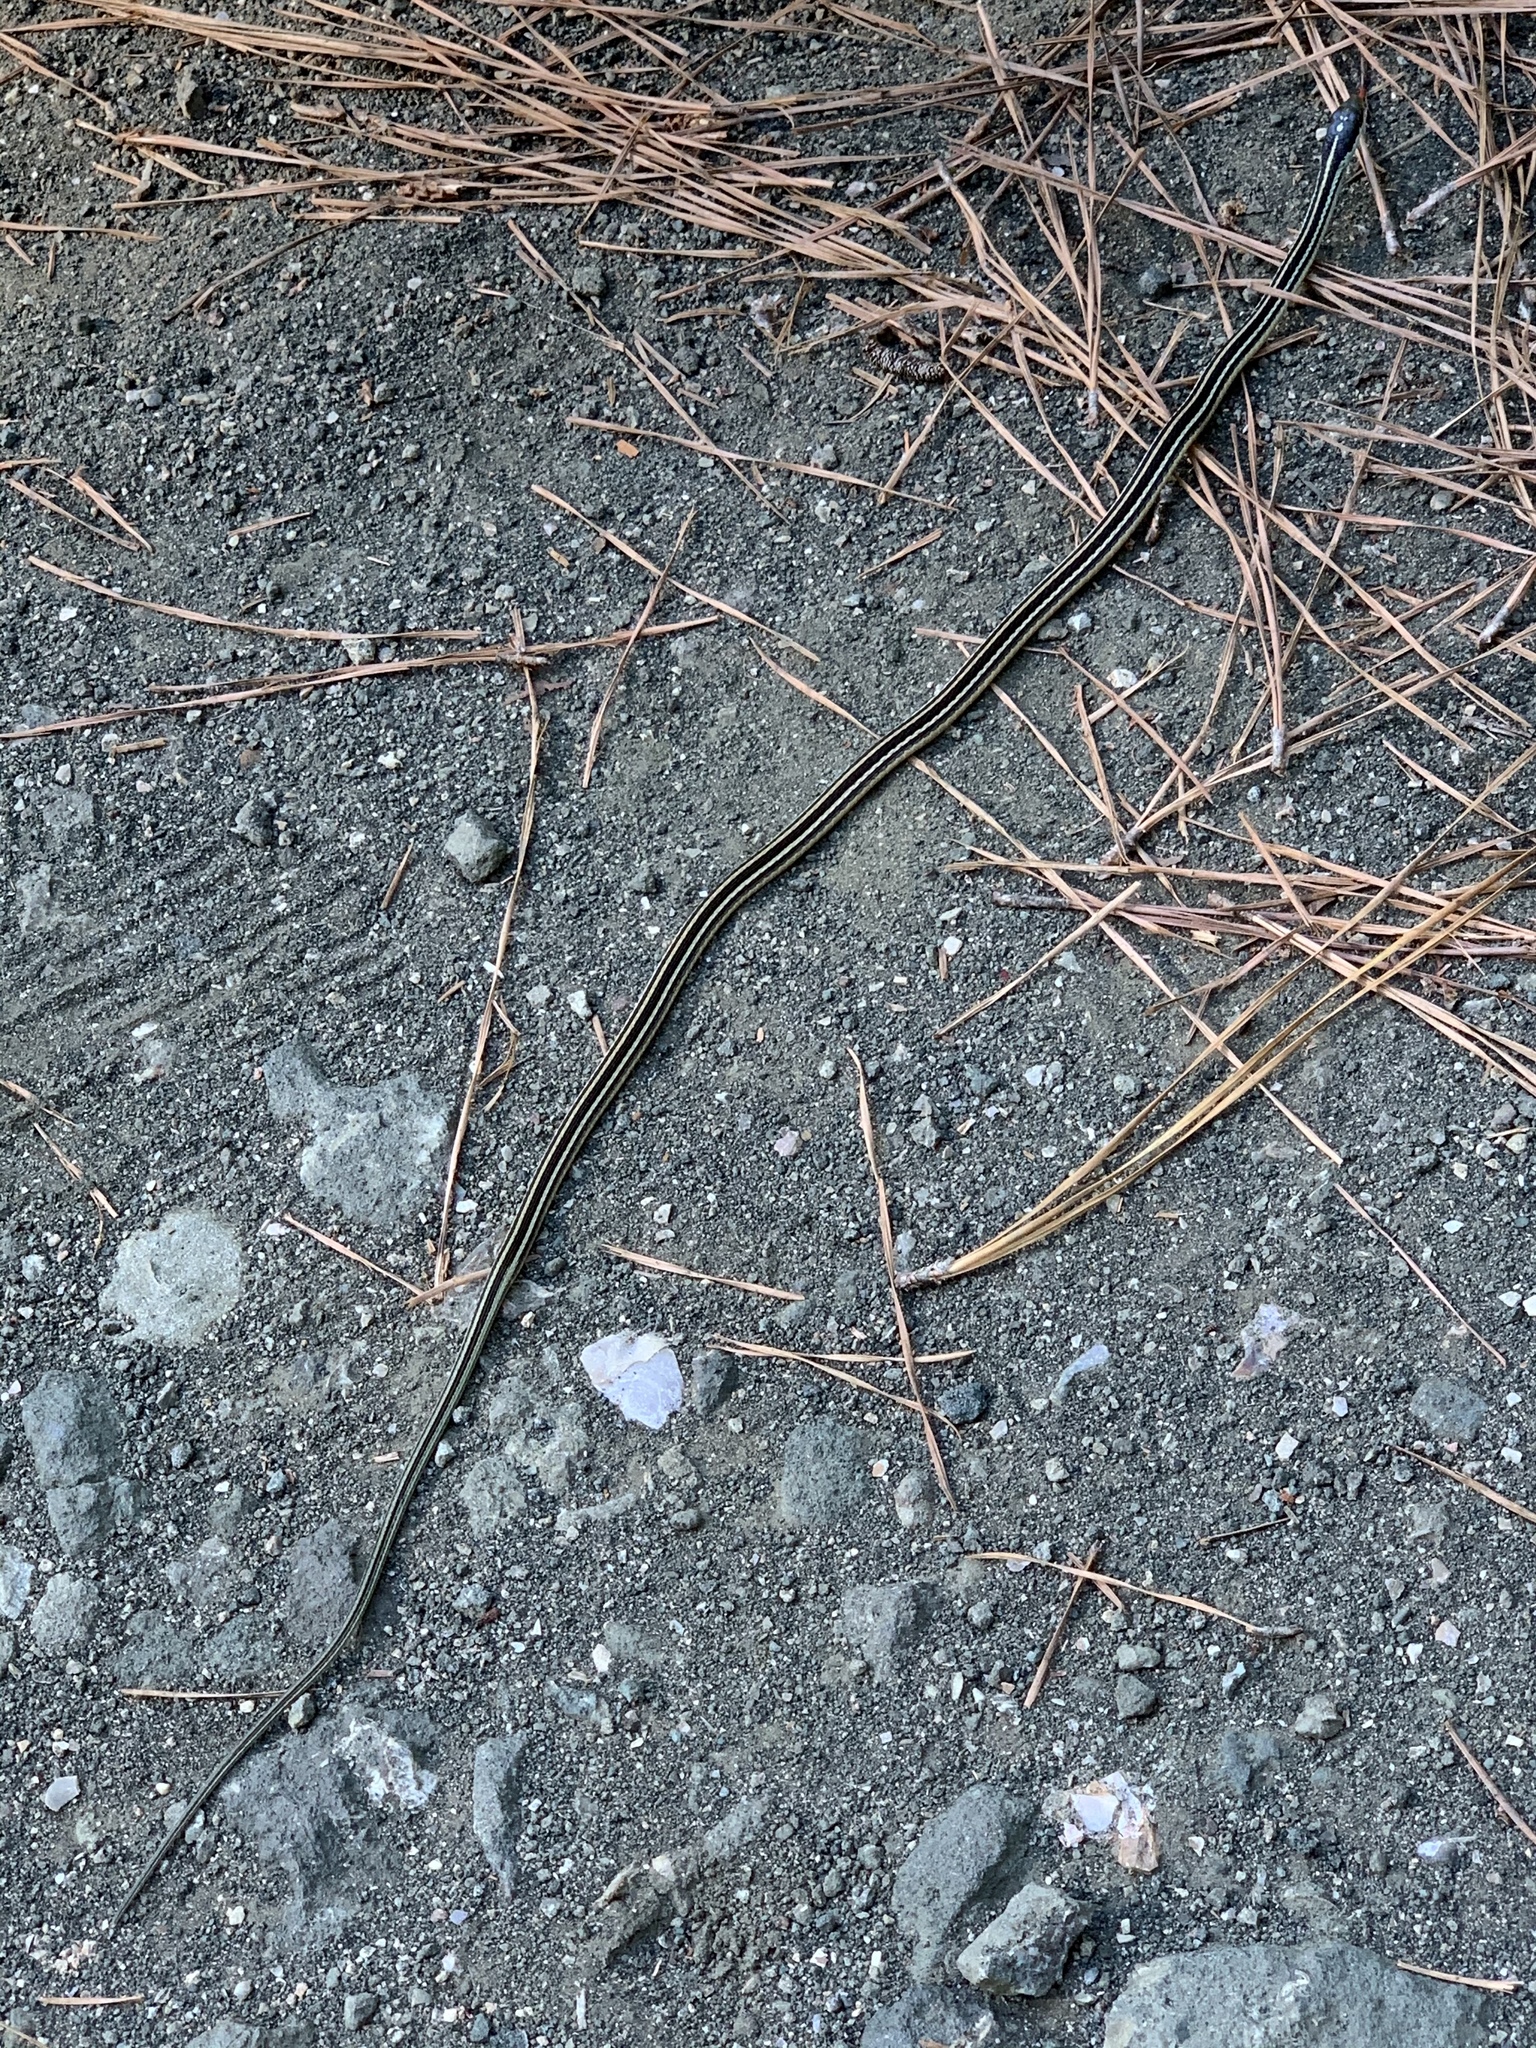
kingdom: Animalia
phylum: Chordata
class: Squamata
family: Colubridae
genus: Thamnophis
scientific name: Thamnophis proximus
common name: Western ribbon snake
